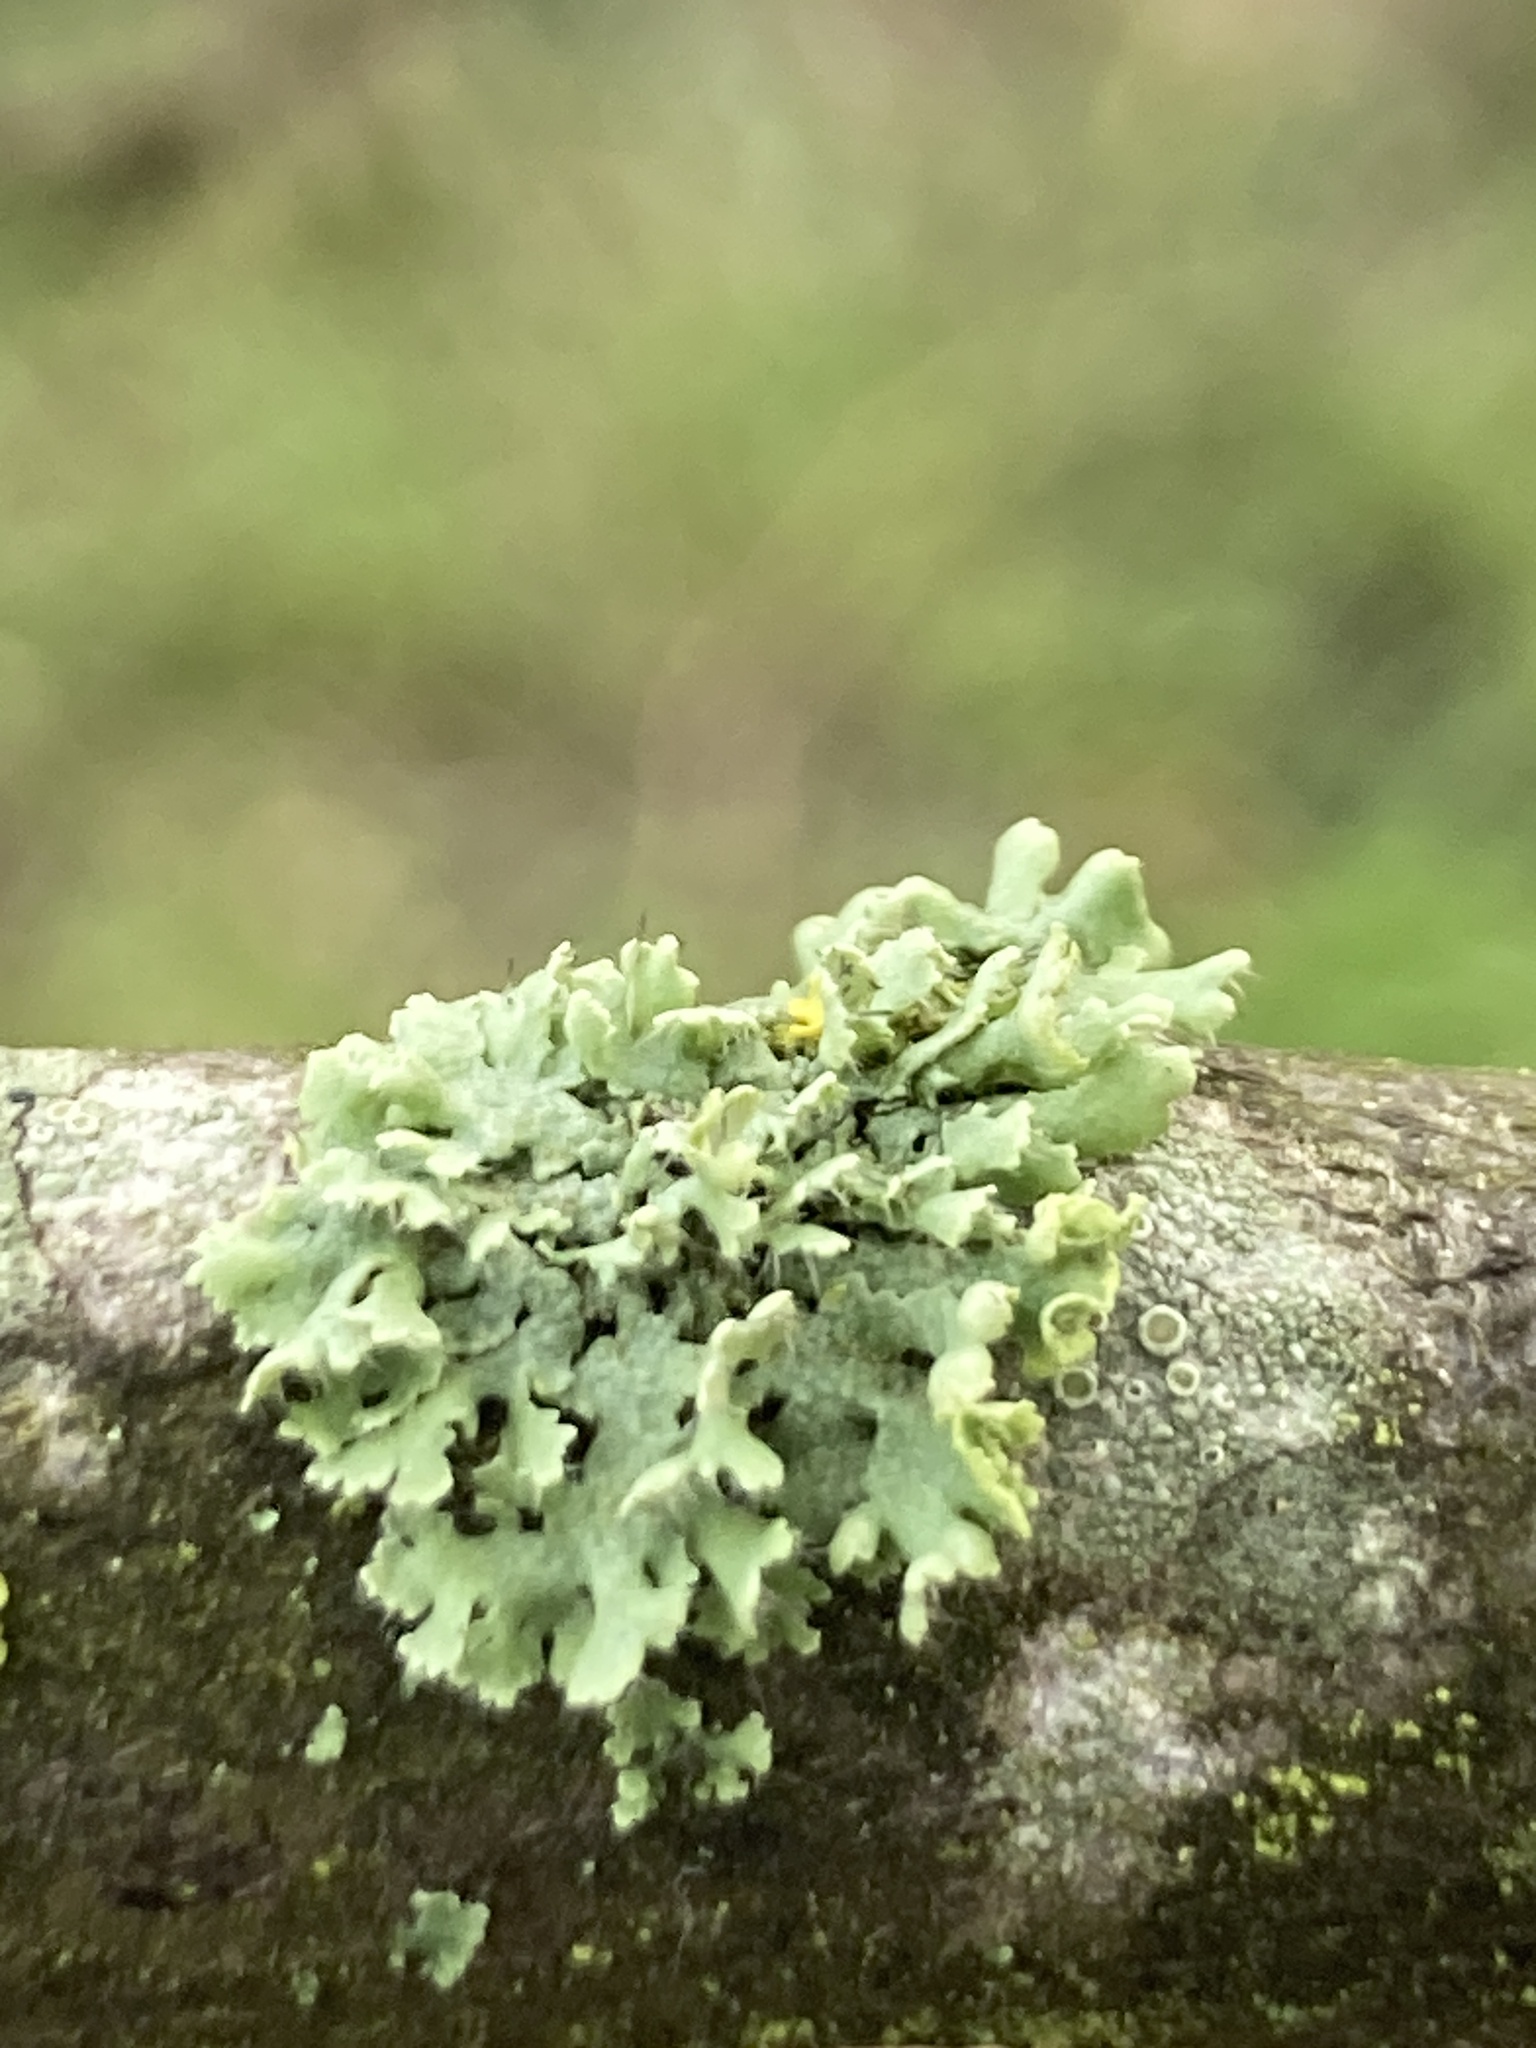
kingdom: Fungi
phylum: Ascomycota
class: Lecanoromycetes
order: Caliciales
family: Physciaceae
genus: Physcia
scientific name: Physcia adscendens
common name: Hooded rosette lichen
